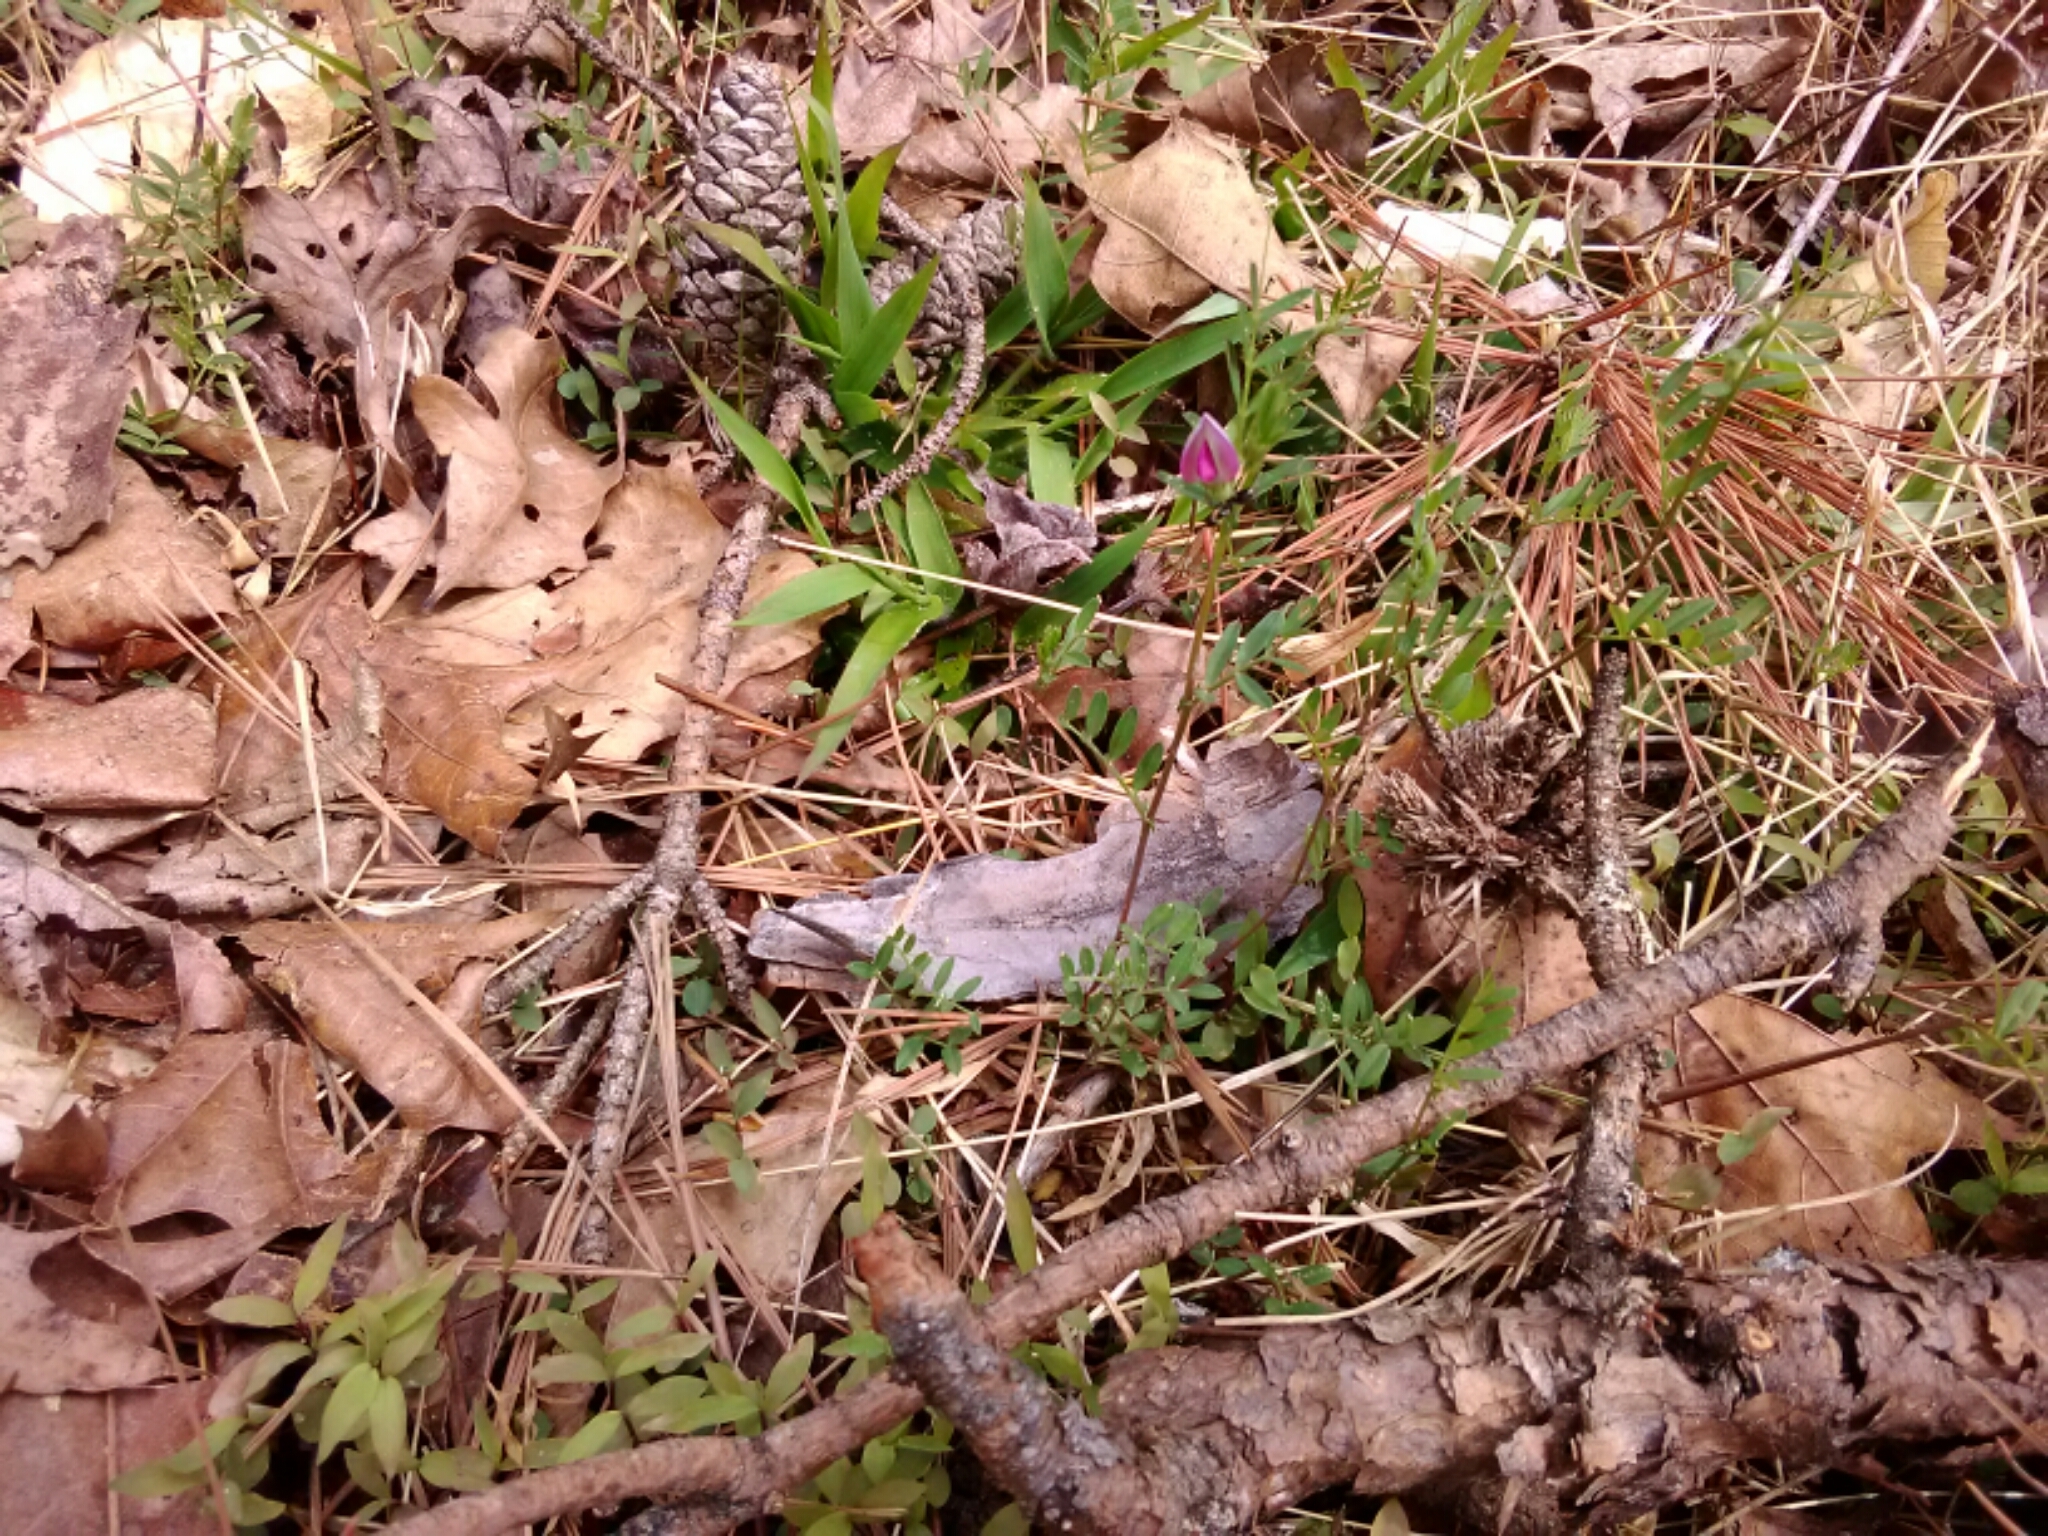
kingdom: Plantae
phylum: Tracheophyta
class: Magnoliopsida
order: Fabales
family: Fabaceae
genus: Vicia
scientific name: Vicia sativa
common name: Garden vetch
